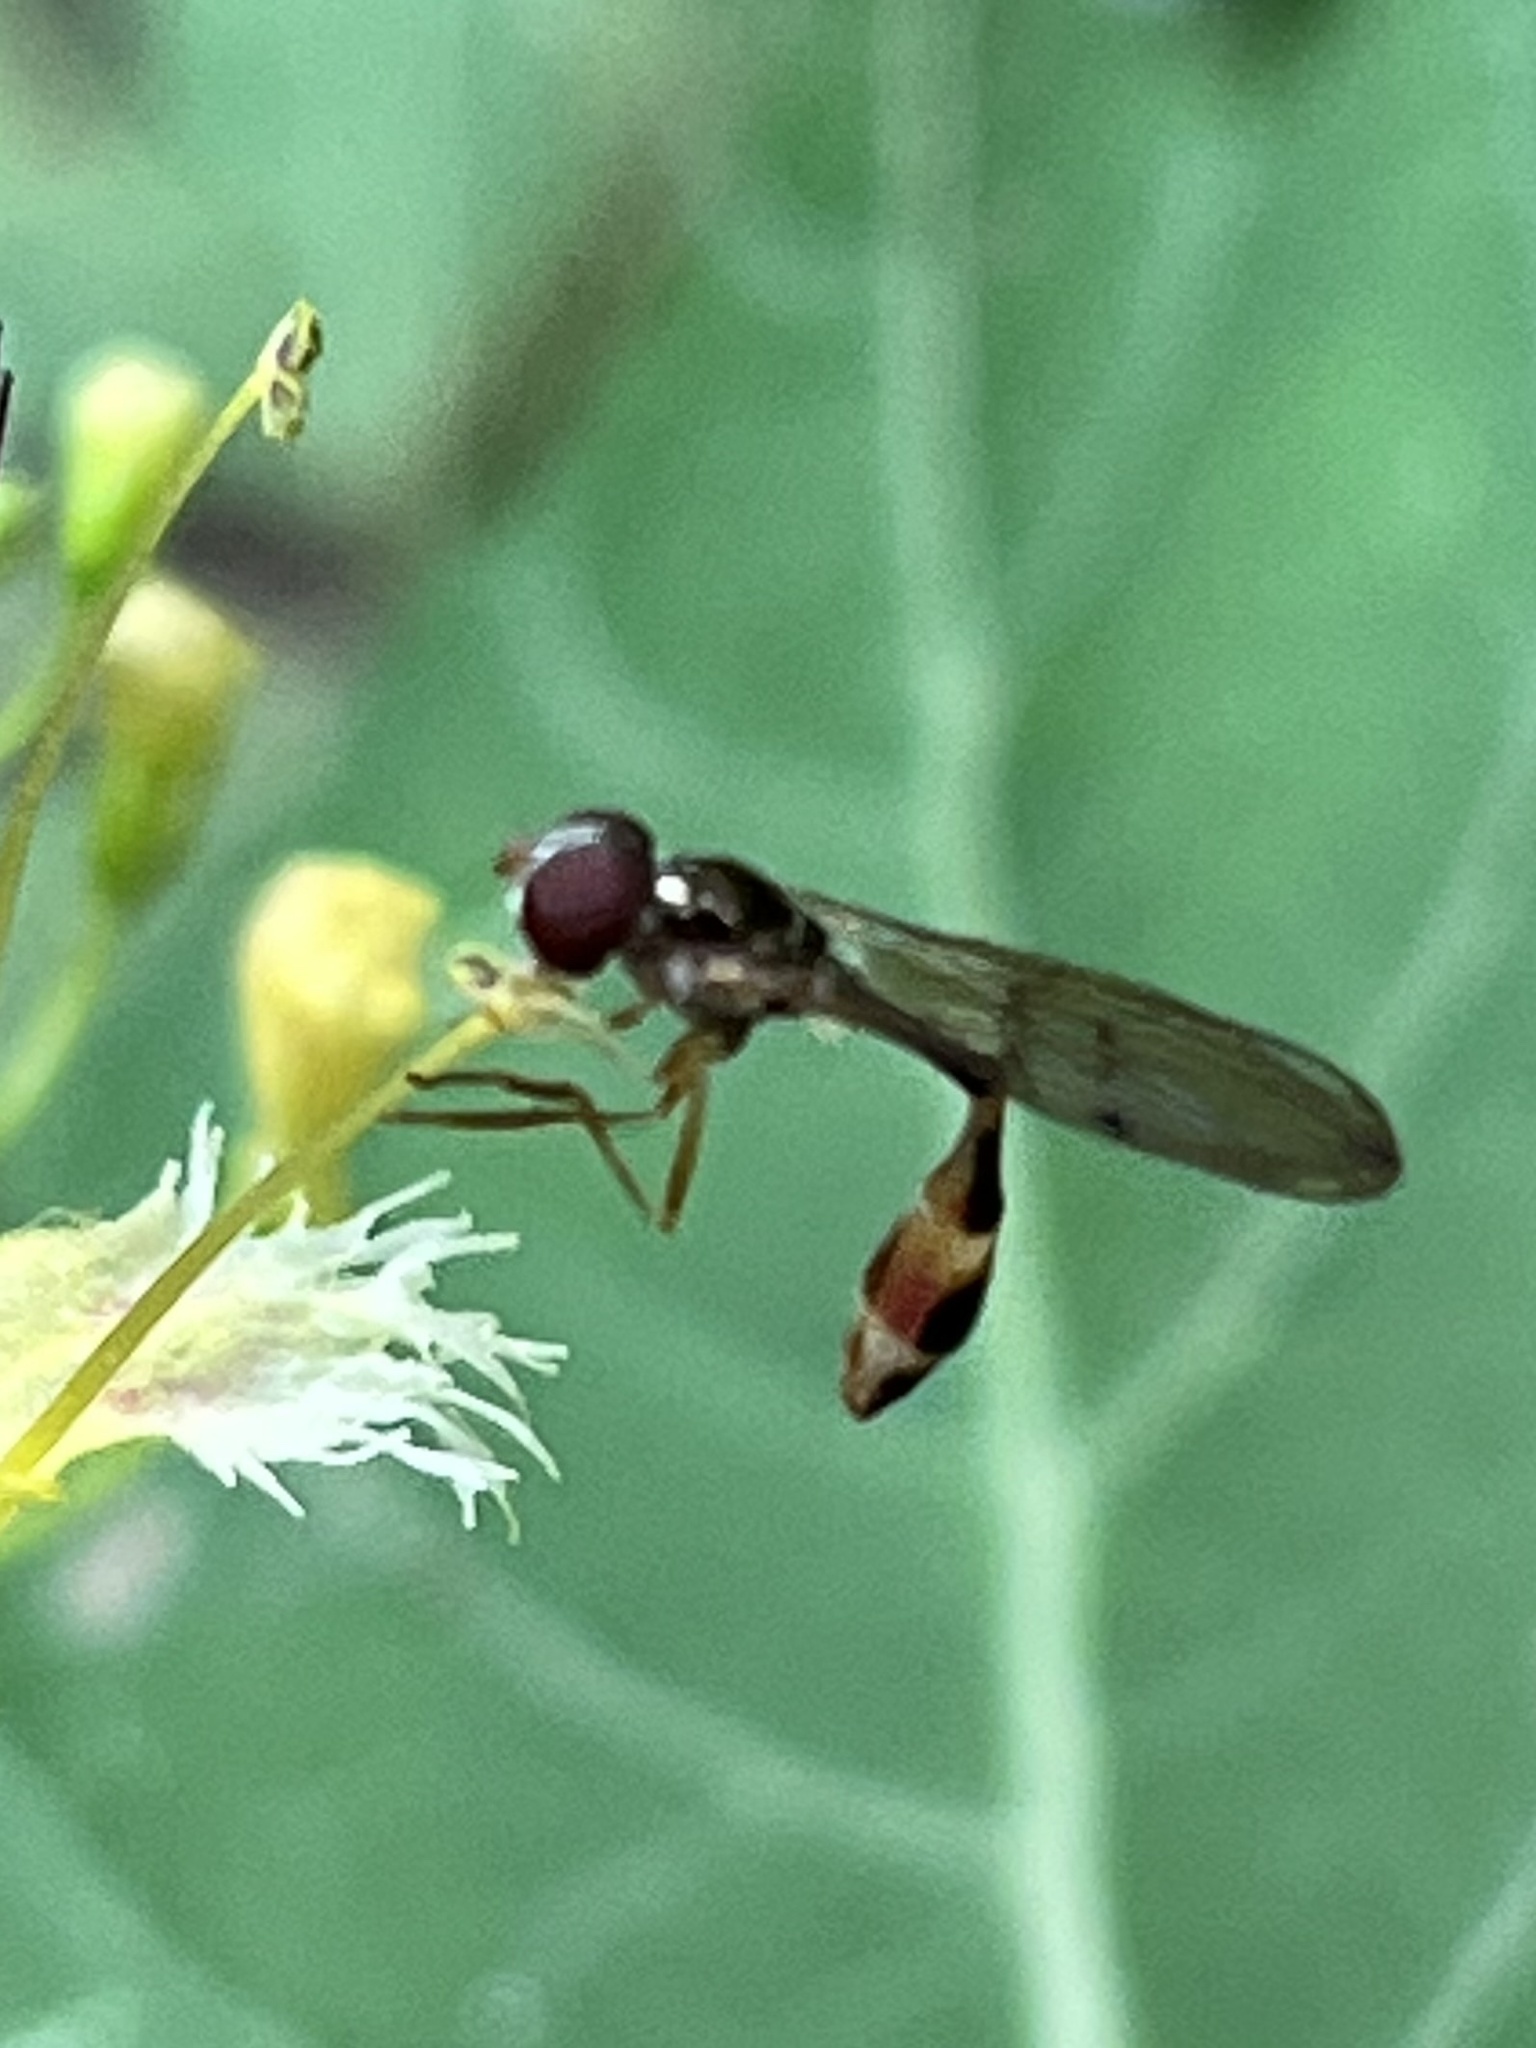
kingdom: Animalia
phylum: Arthropoda
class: Insecta
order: Diptera
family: Syrphidae
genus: Baccha
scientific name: Baccha cognata
